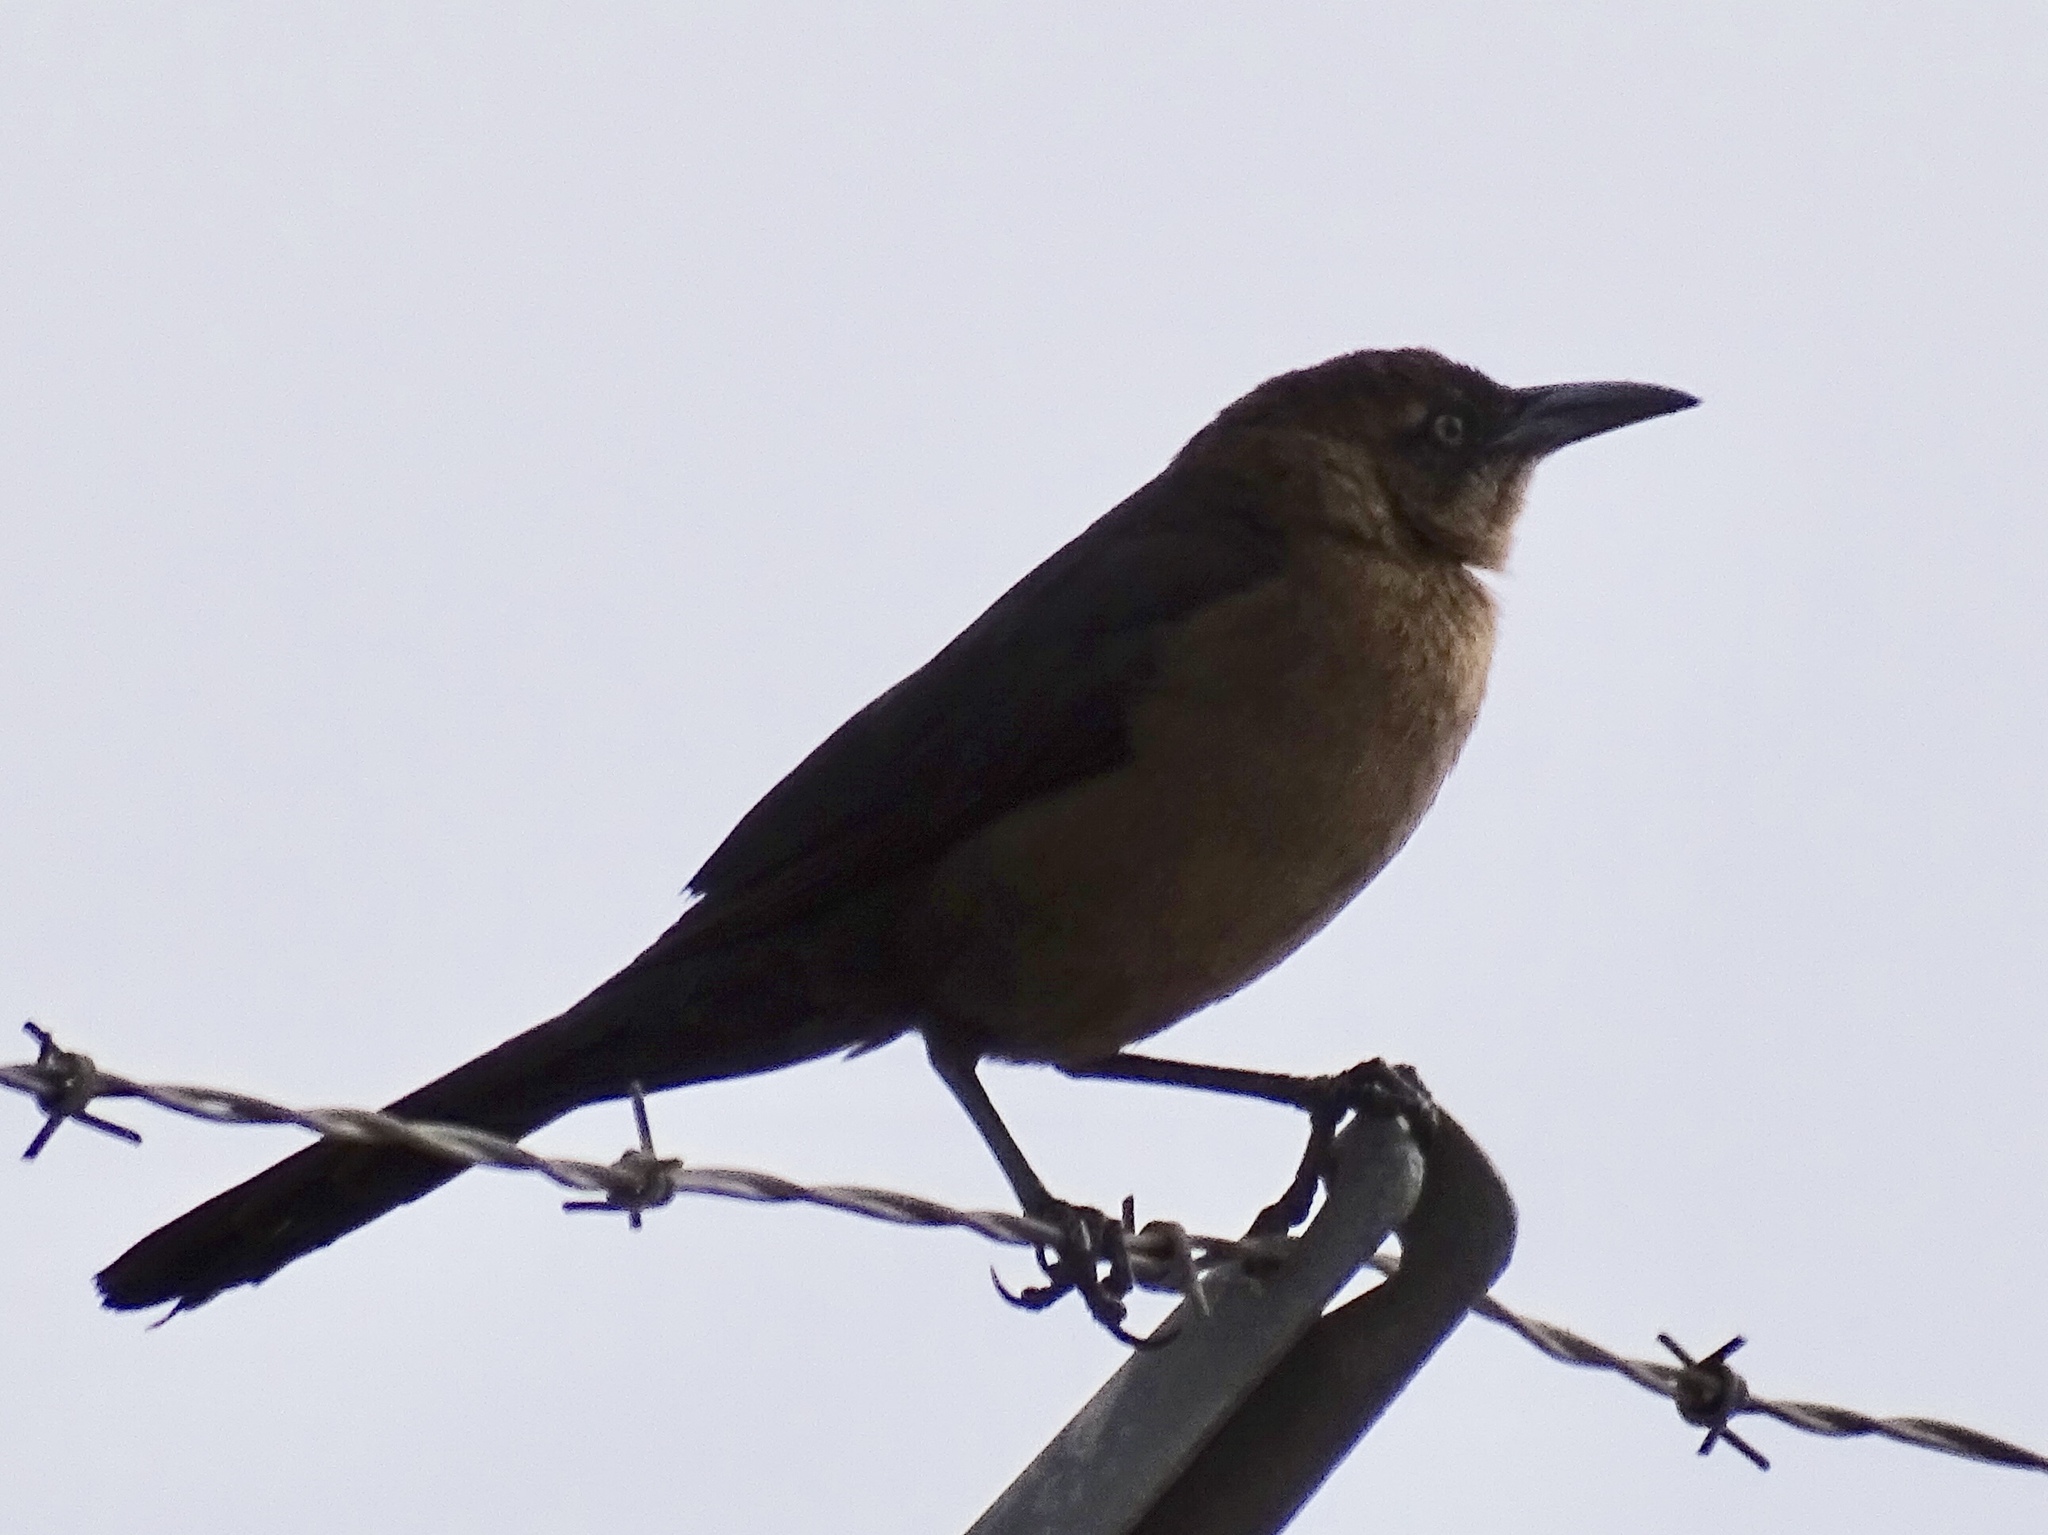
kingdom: Animalia
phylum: Chordata
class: Aves
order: Passeriformes
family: Icteridae
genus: Quiscalus
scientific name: Quiscalus mexicanus
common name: Great-tailed grackle
